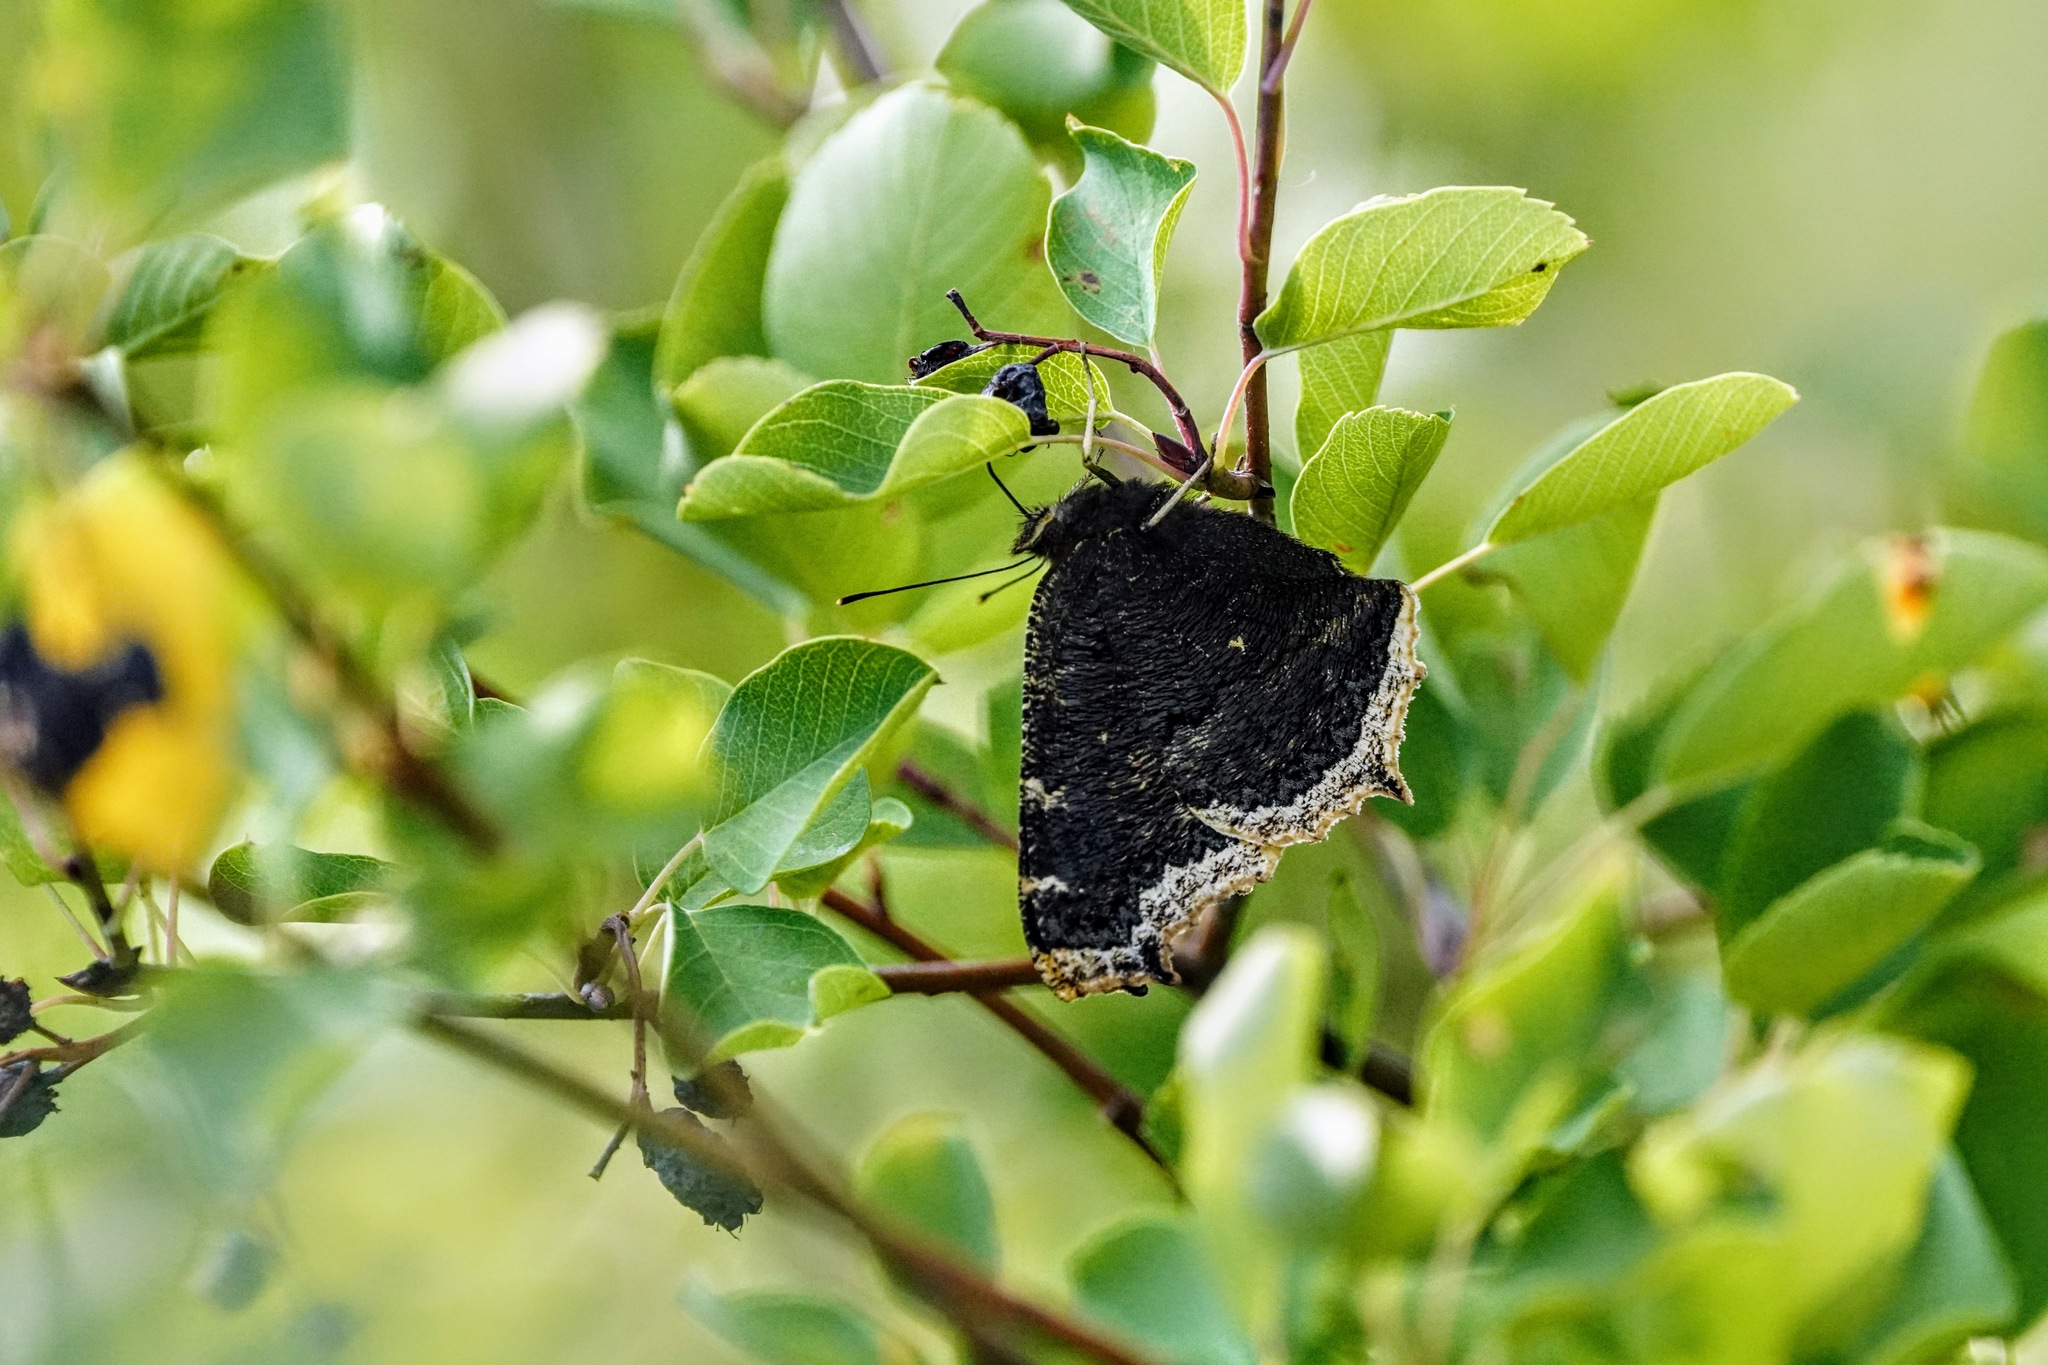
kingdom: Animalia
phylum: Arthropoda
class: Insecta
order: Lepidoptera
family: Nymphalidae
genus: Nymphalis
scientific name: Nymphalis antiopa
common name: Camberwell beauty
